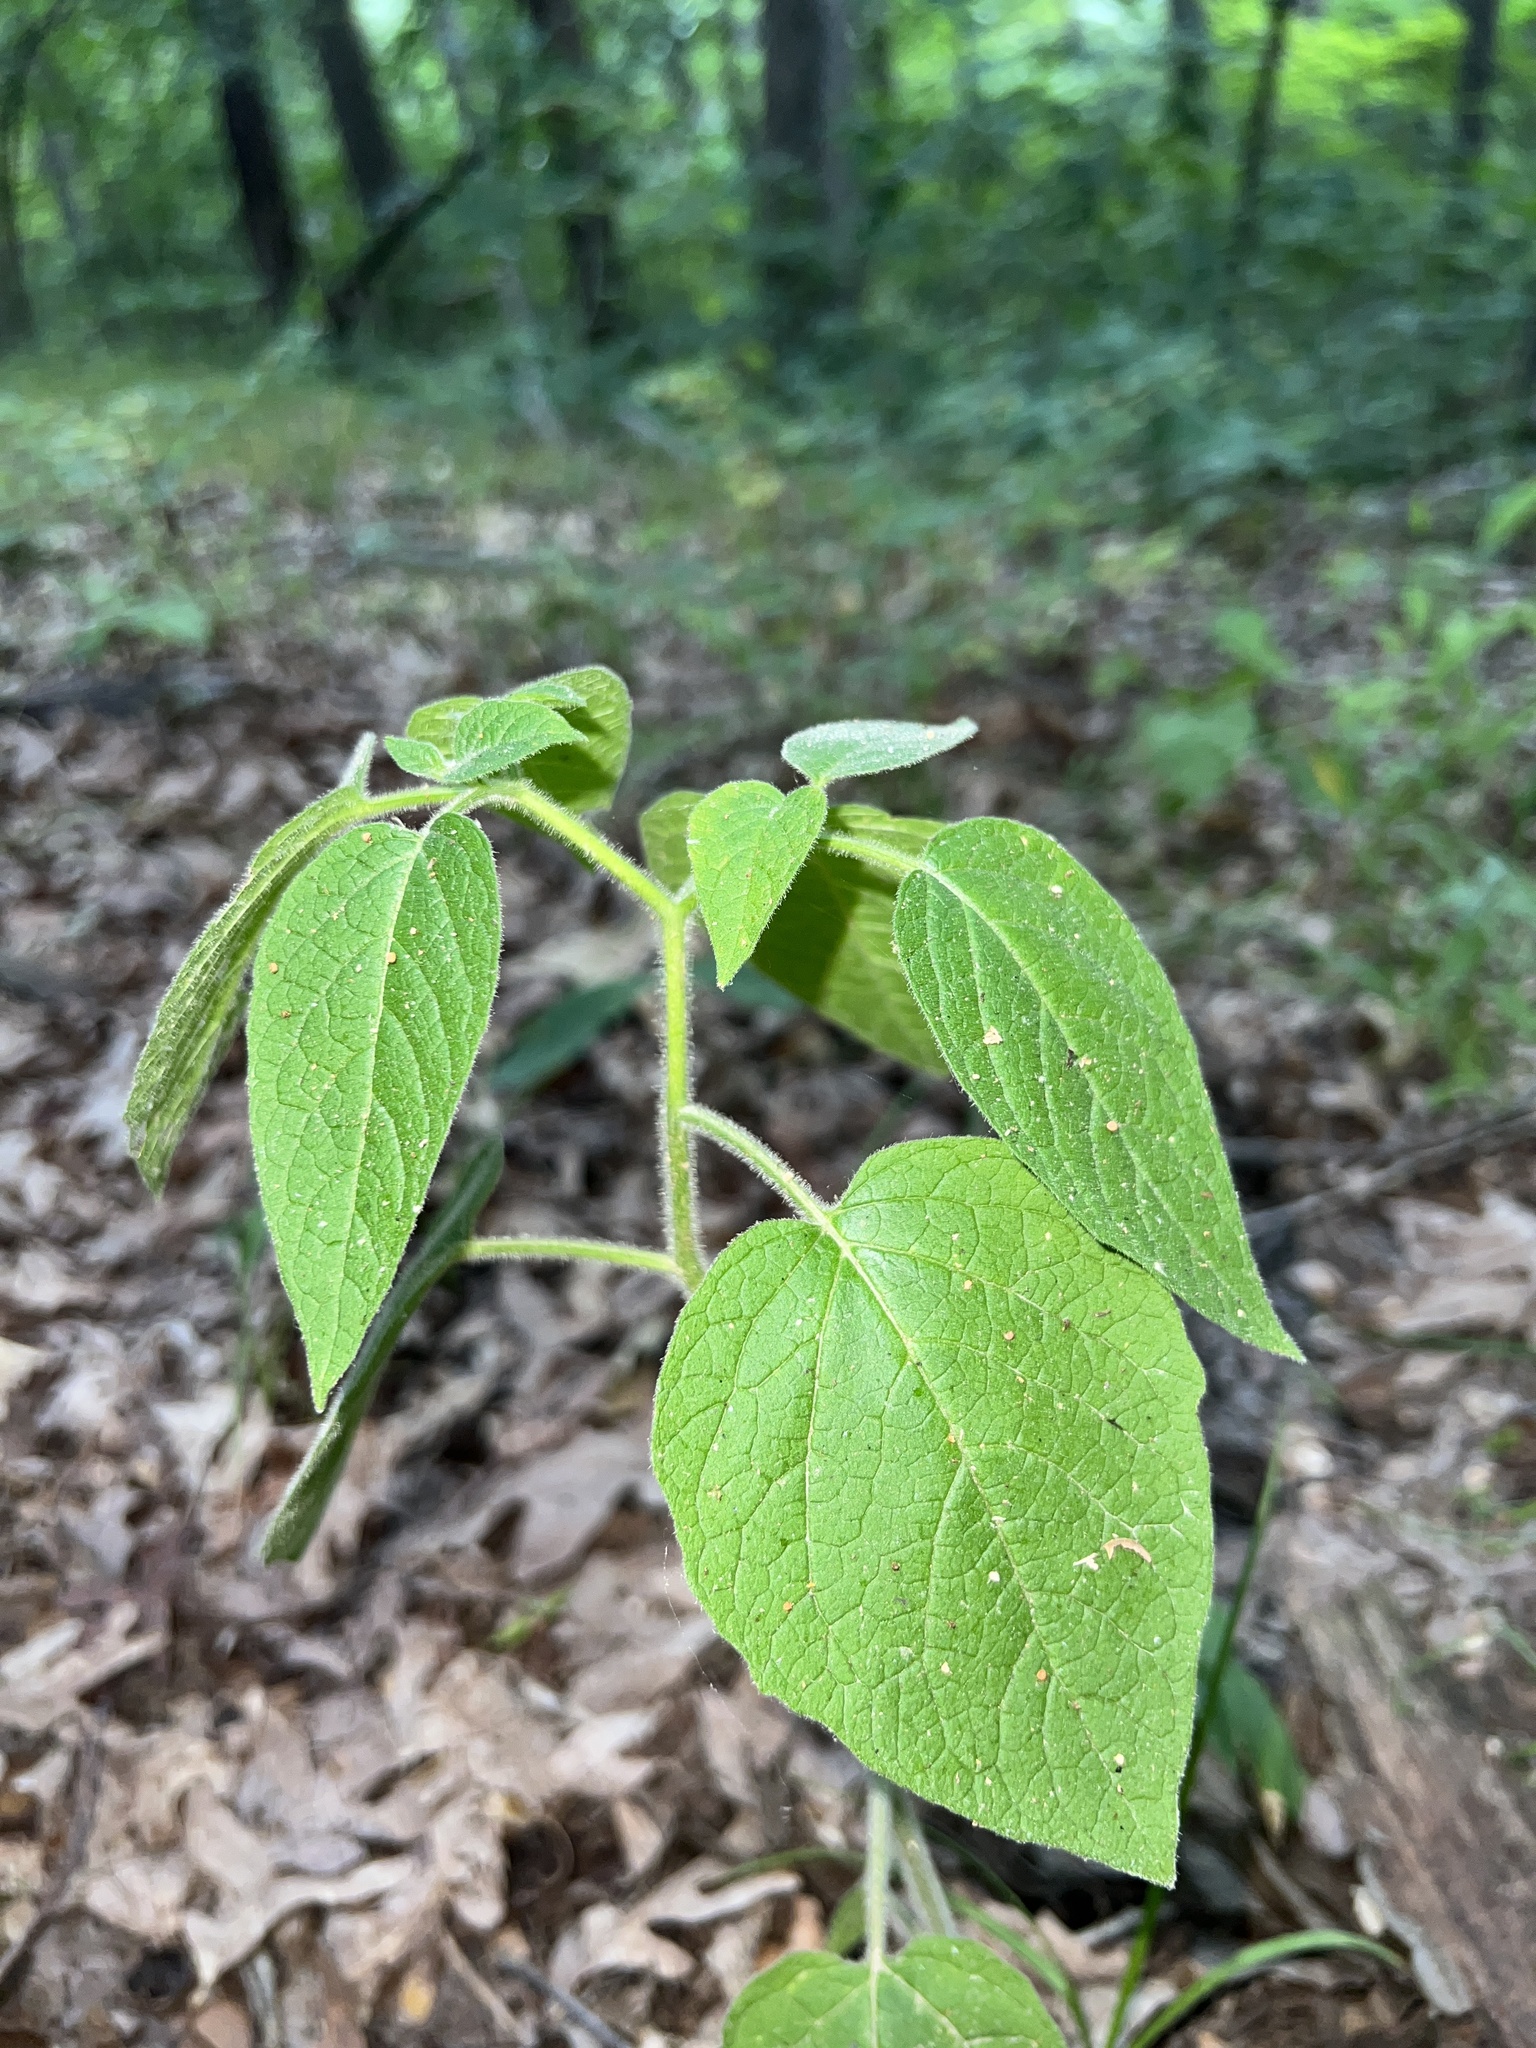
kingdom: Plantae
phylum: Tracheophyta
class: Magnoliopsida
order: Solanales
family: Solanaceae
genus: Physalis
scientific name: Physalis heterophylla
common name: Clammy ground-cherry
